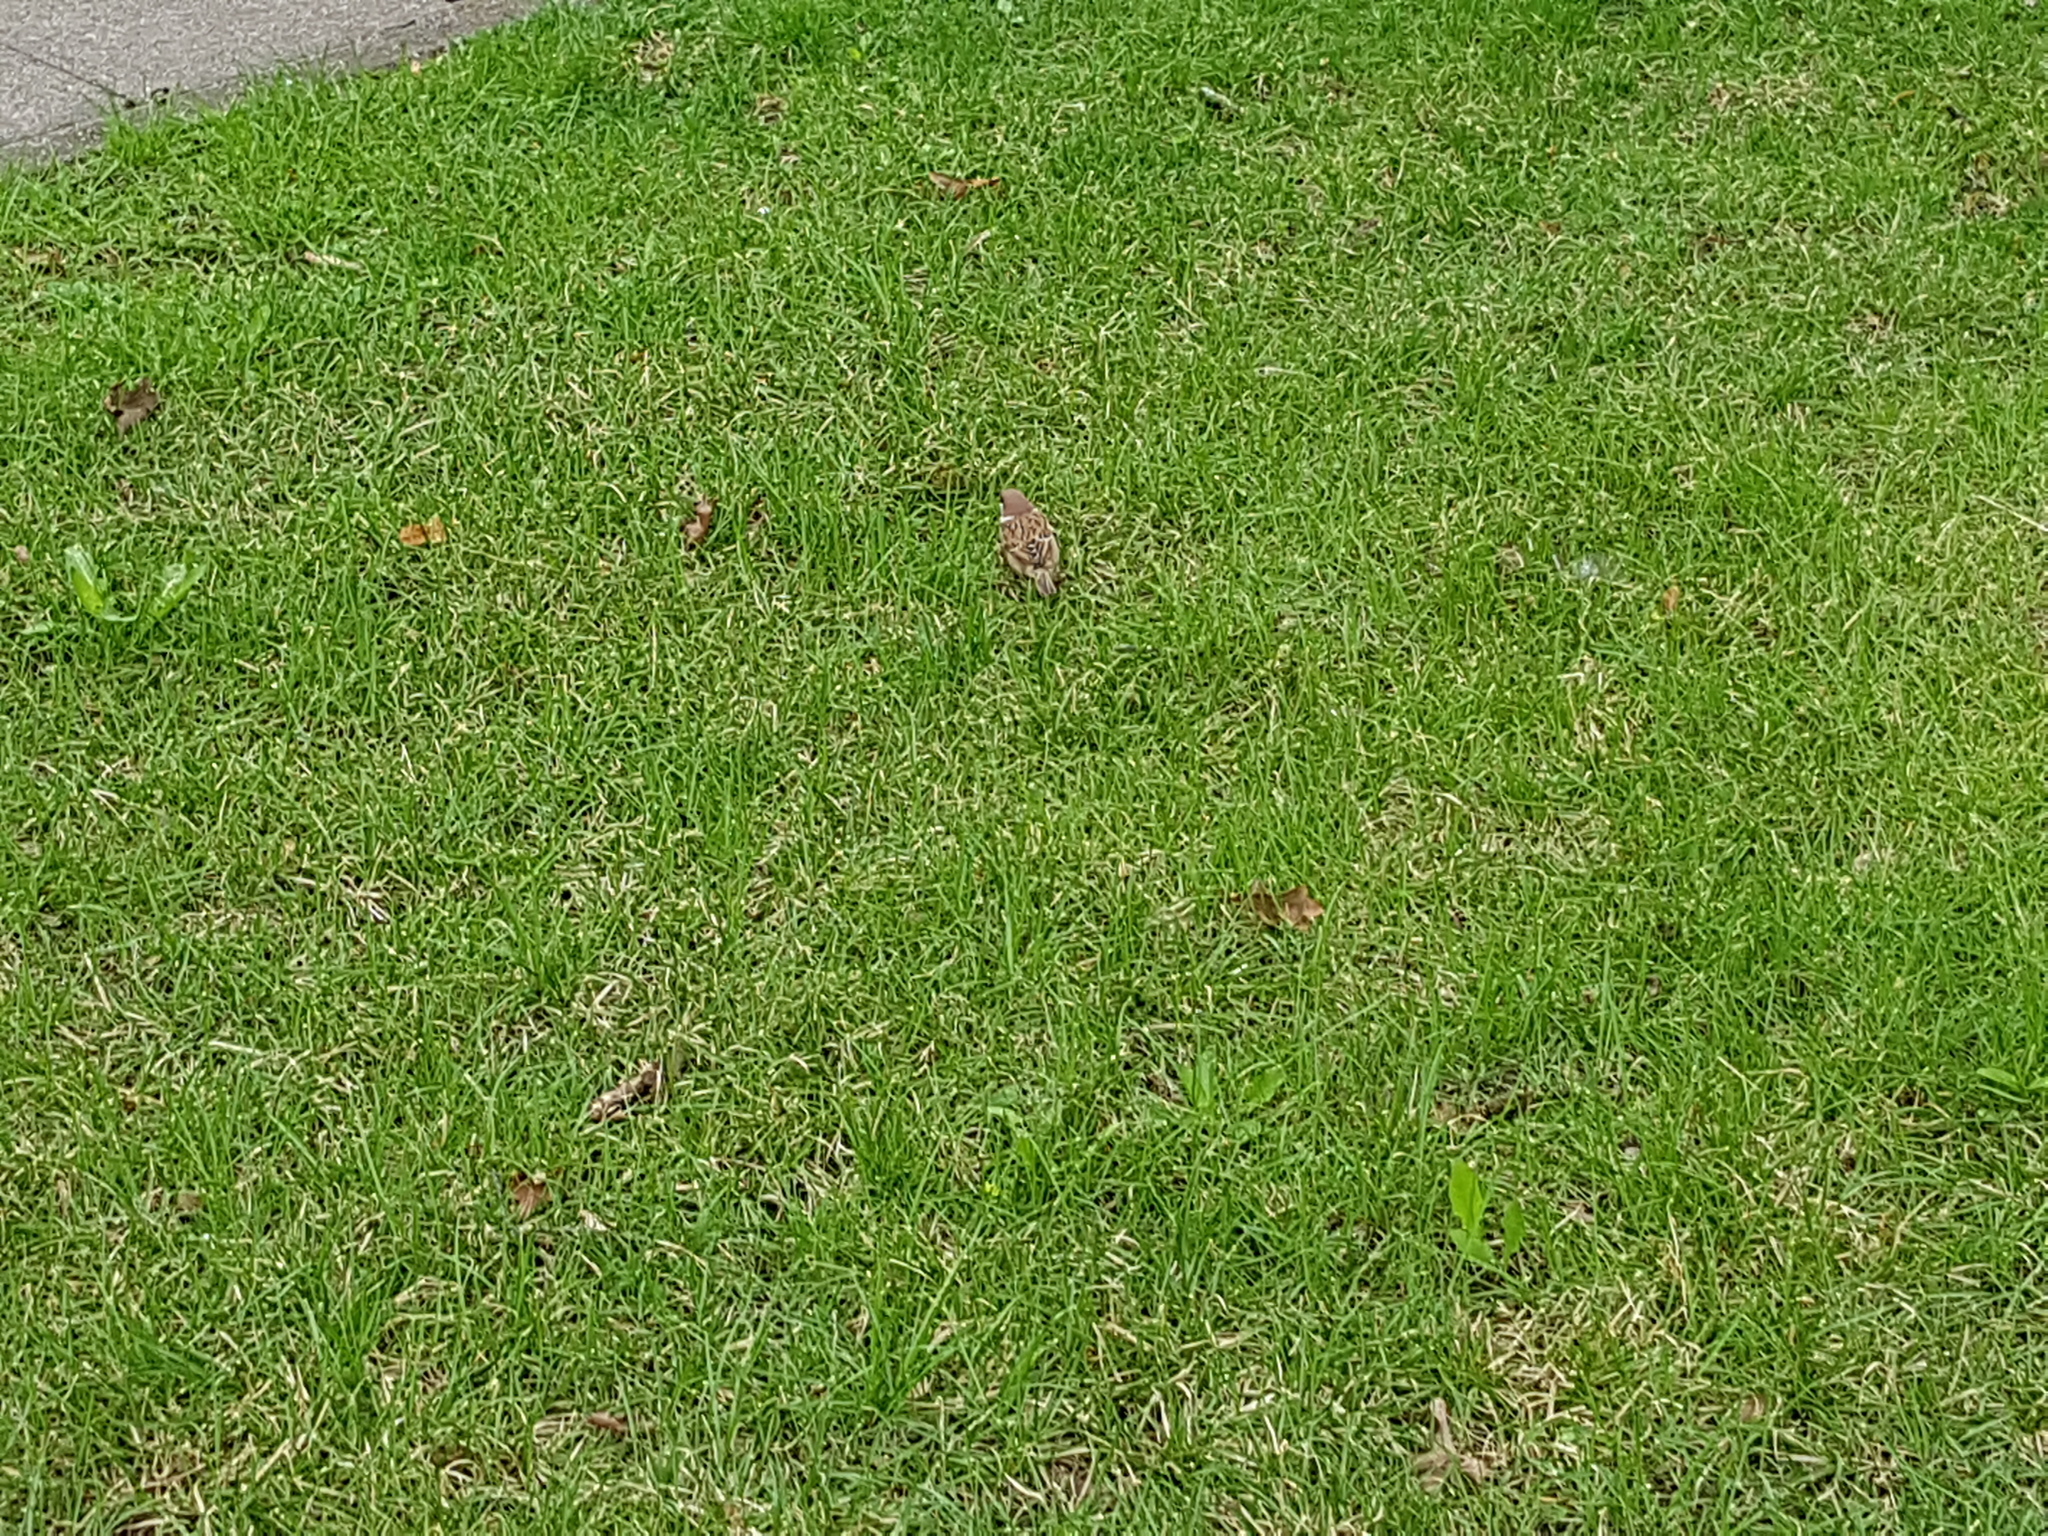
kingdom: Animalia
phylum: Chordata
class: Aves
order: Passeriformes
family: Passeridae
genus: Passer
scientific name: Passer montanus
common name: Eurasian tree sparrow
